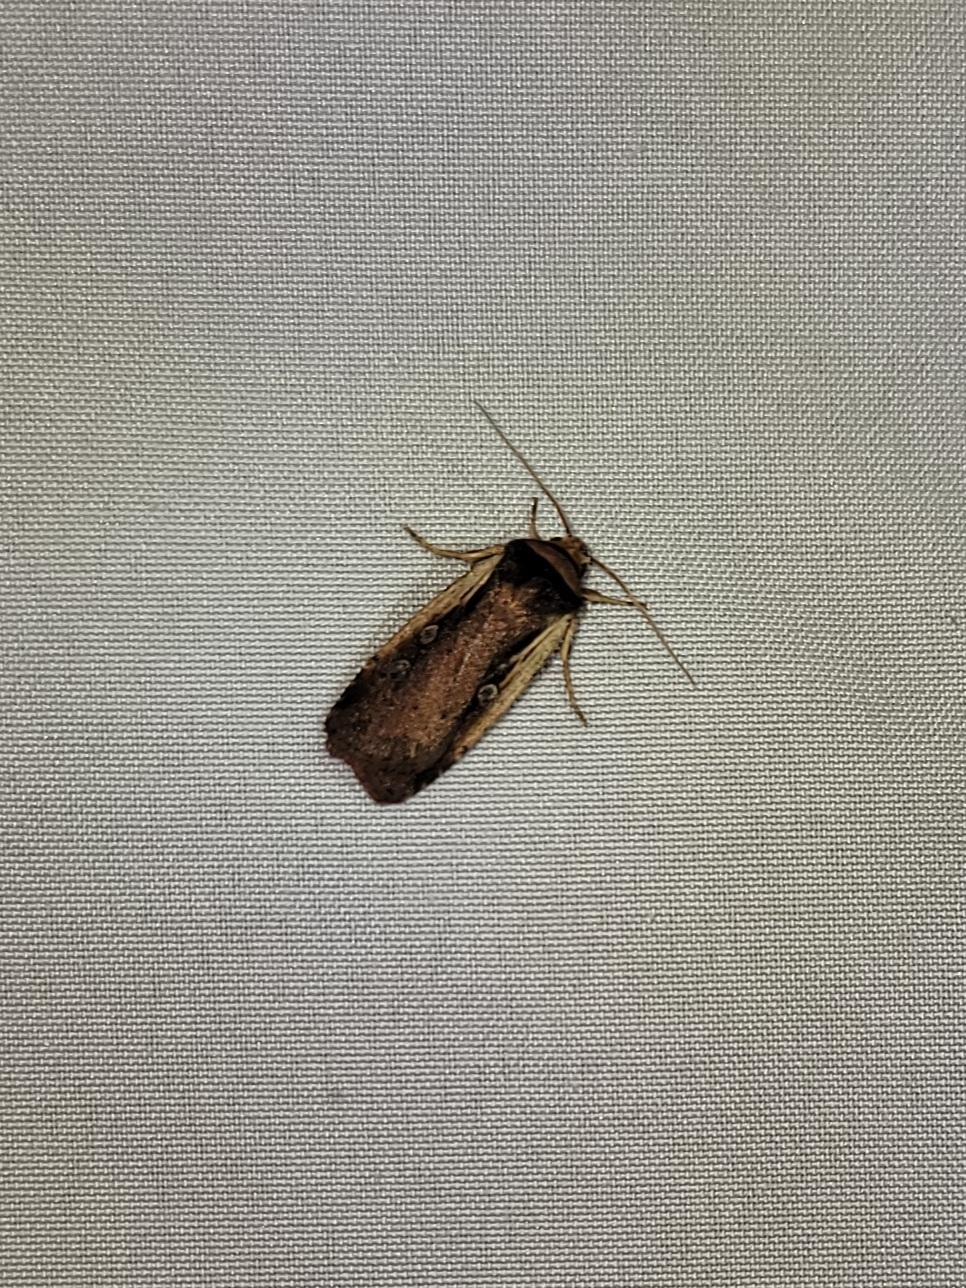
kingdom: Animalia
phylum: Arthropoda
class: Insecta
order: Lepidoptera
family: Noctuidae
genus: Ochropleura
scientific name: Ochropleura implecta
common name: Flame-shouldered dart
